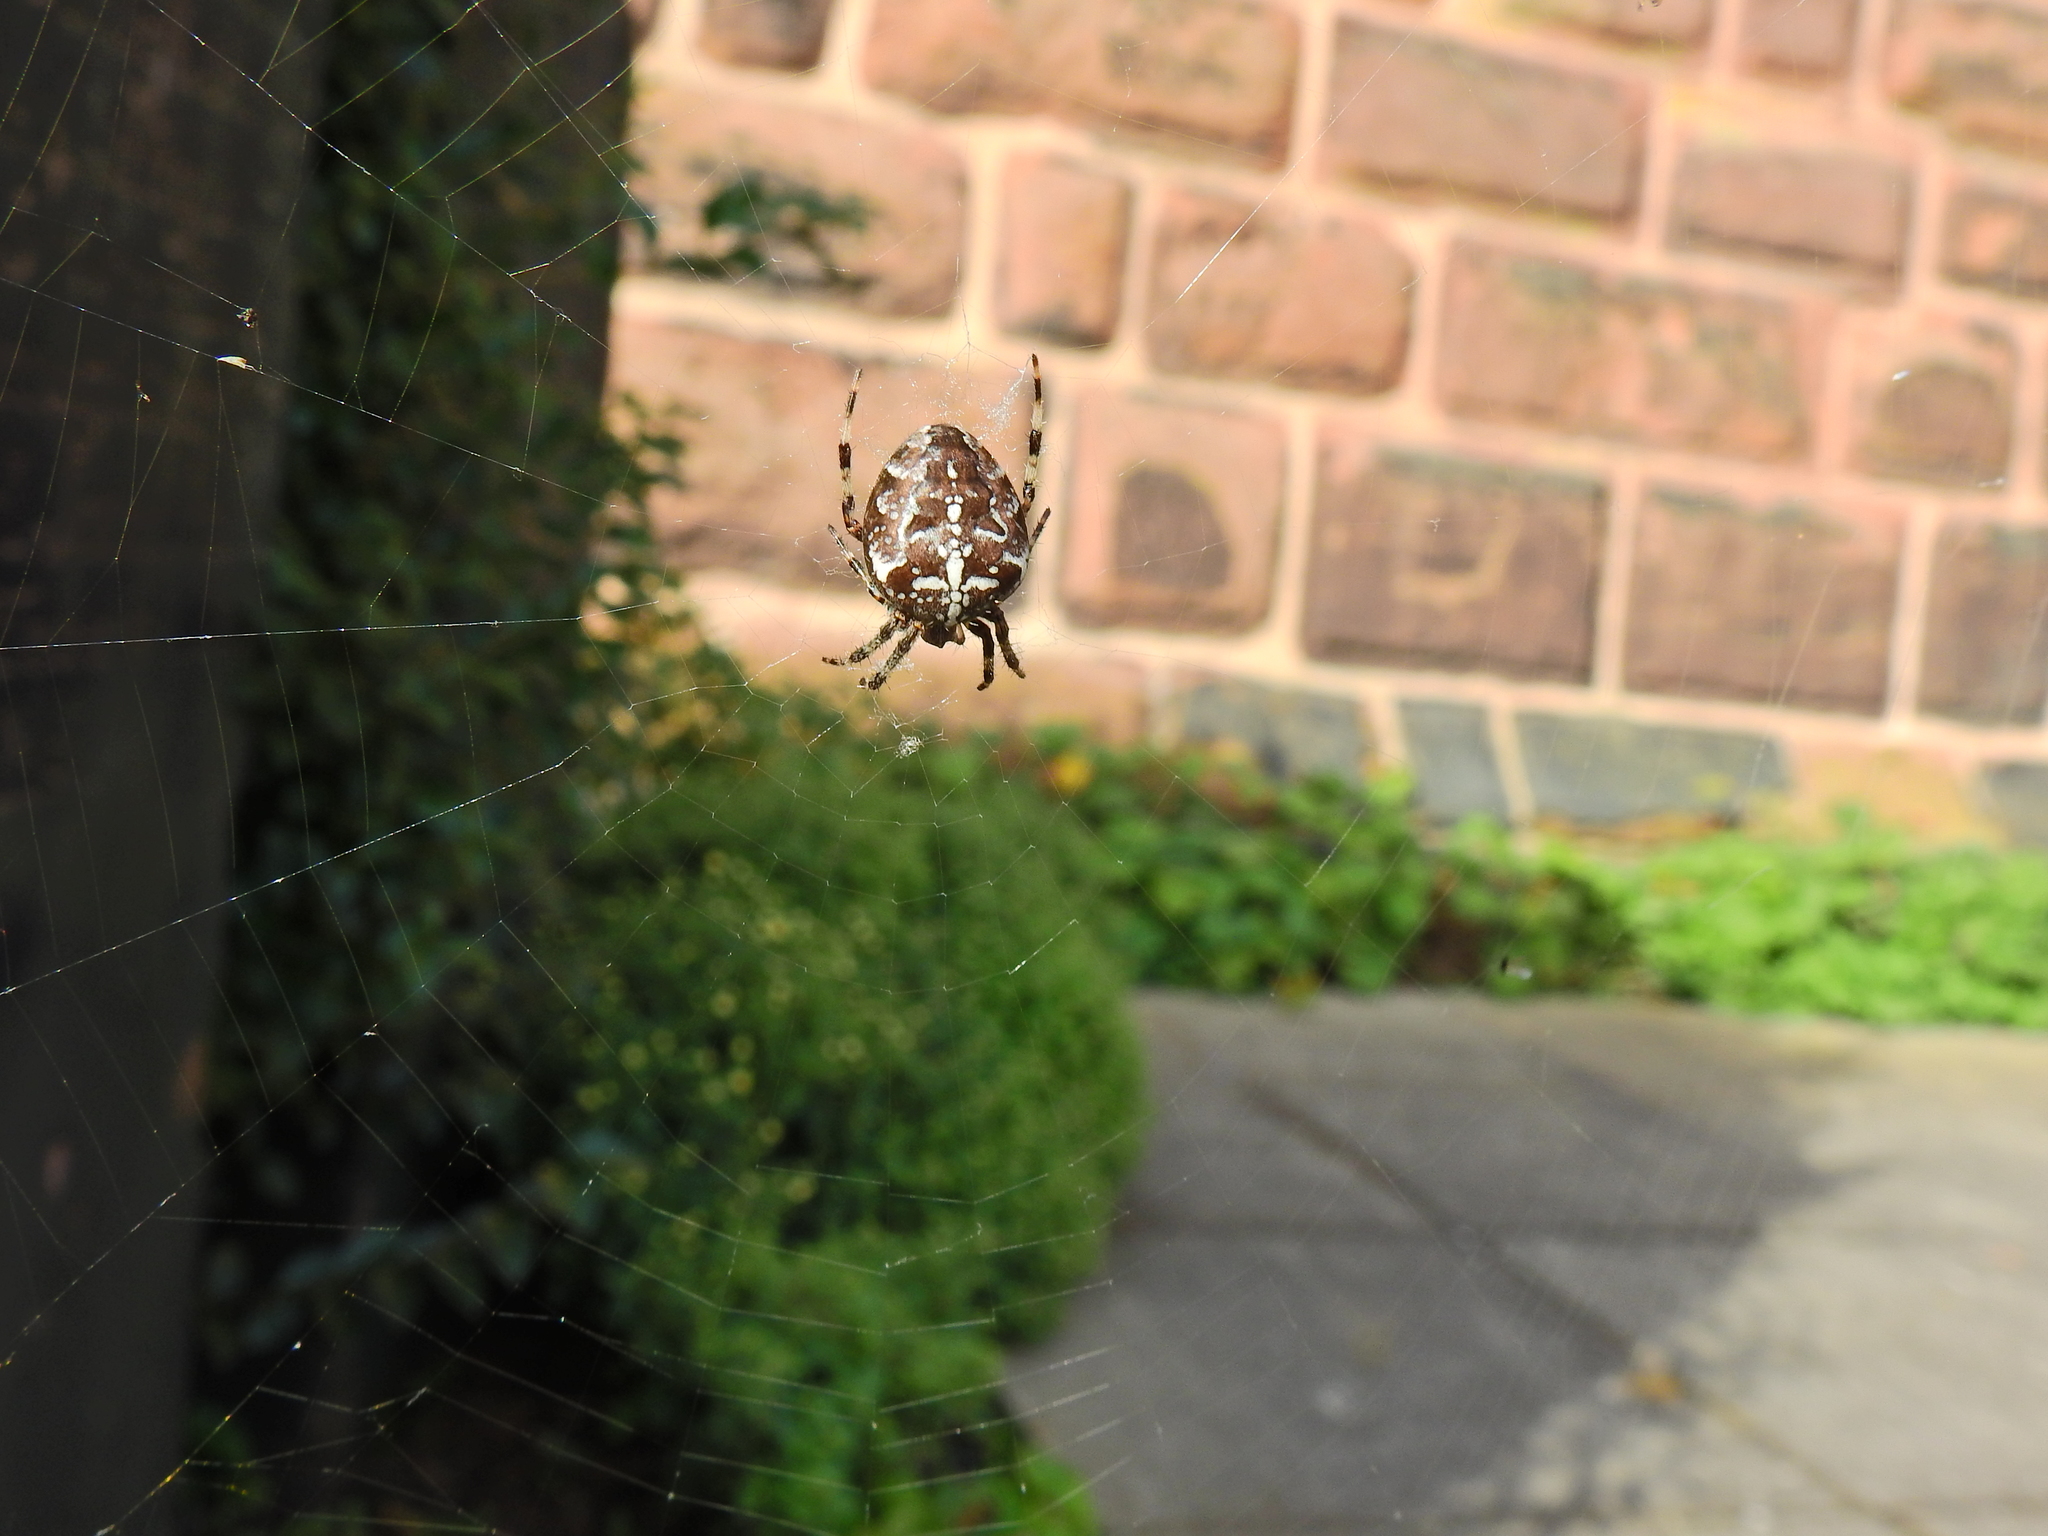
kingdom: Animalia
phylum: Arthropoda
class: Arachnida
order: Araneae
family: Araneidae
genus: Araneus
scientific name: Araneus diadematus
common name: Cross orbweaver
